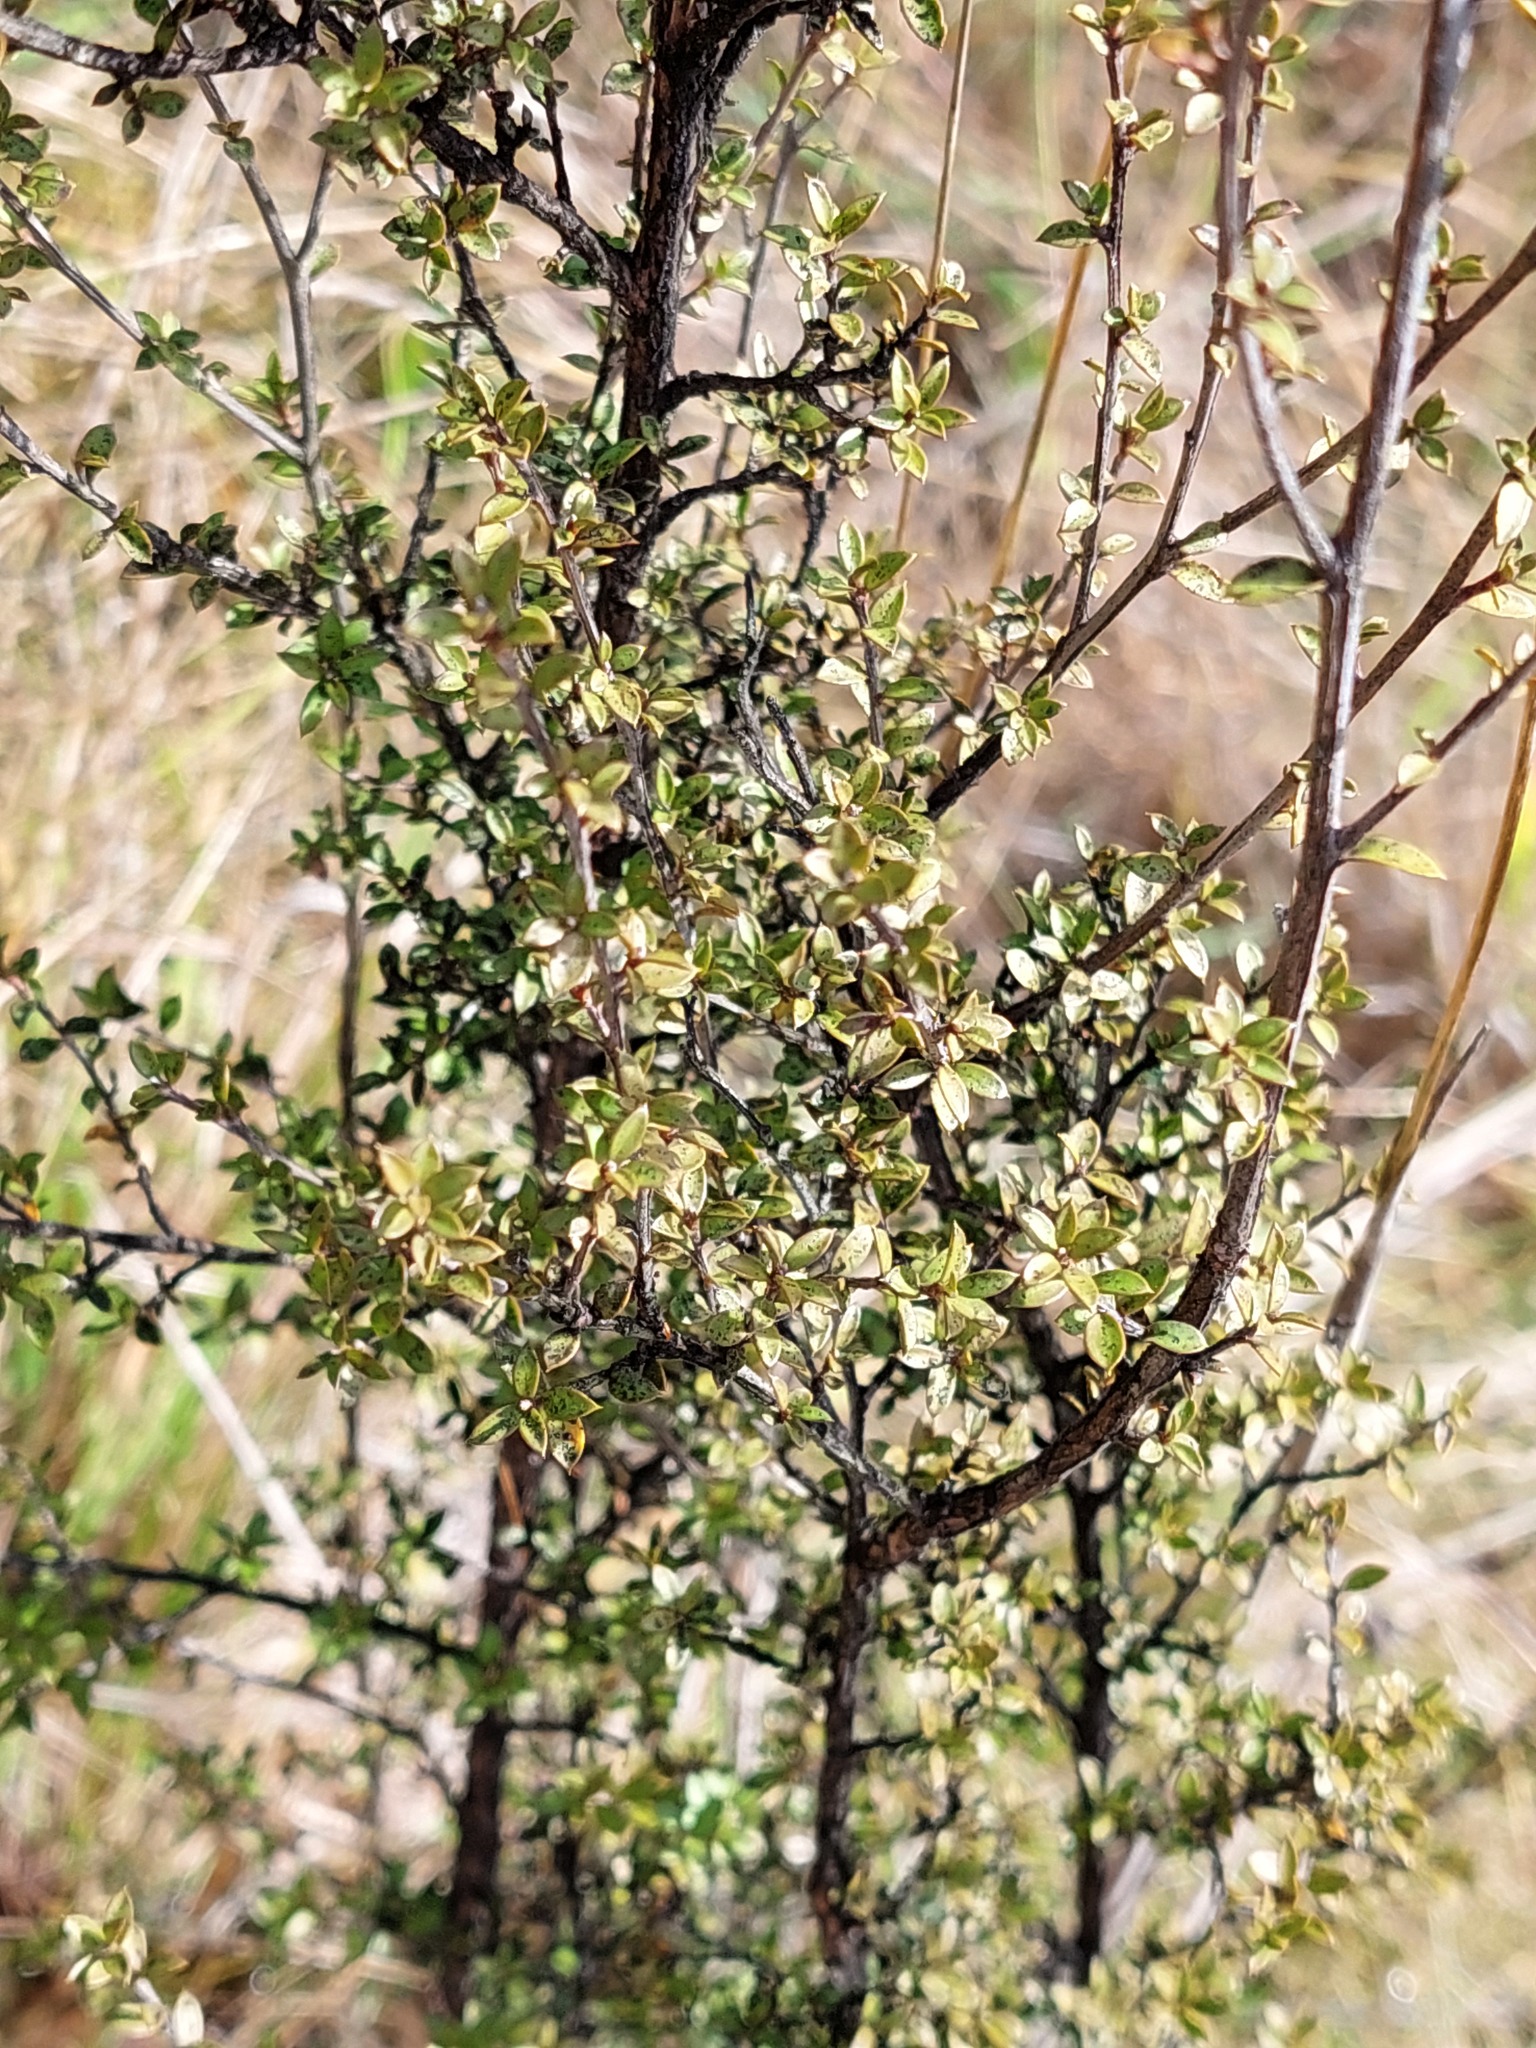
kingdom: Plantae
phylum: Tracheophyta
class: Magnoliopsida
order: Myrtales
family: Myrtaceae
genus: Leptospermum
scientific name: Leptospermum scoparium
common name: Broom tea-tree
